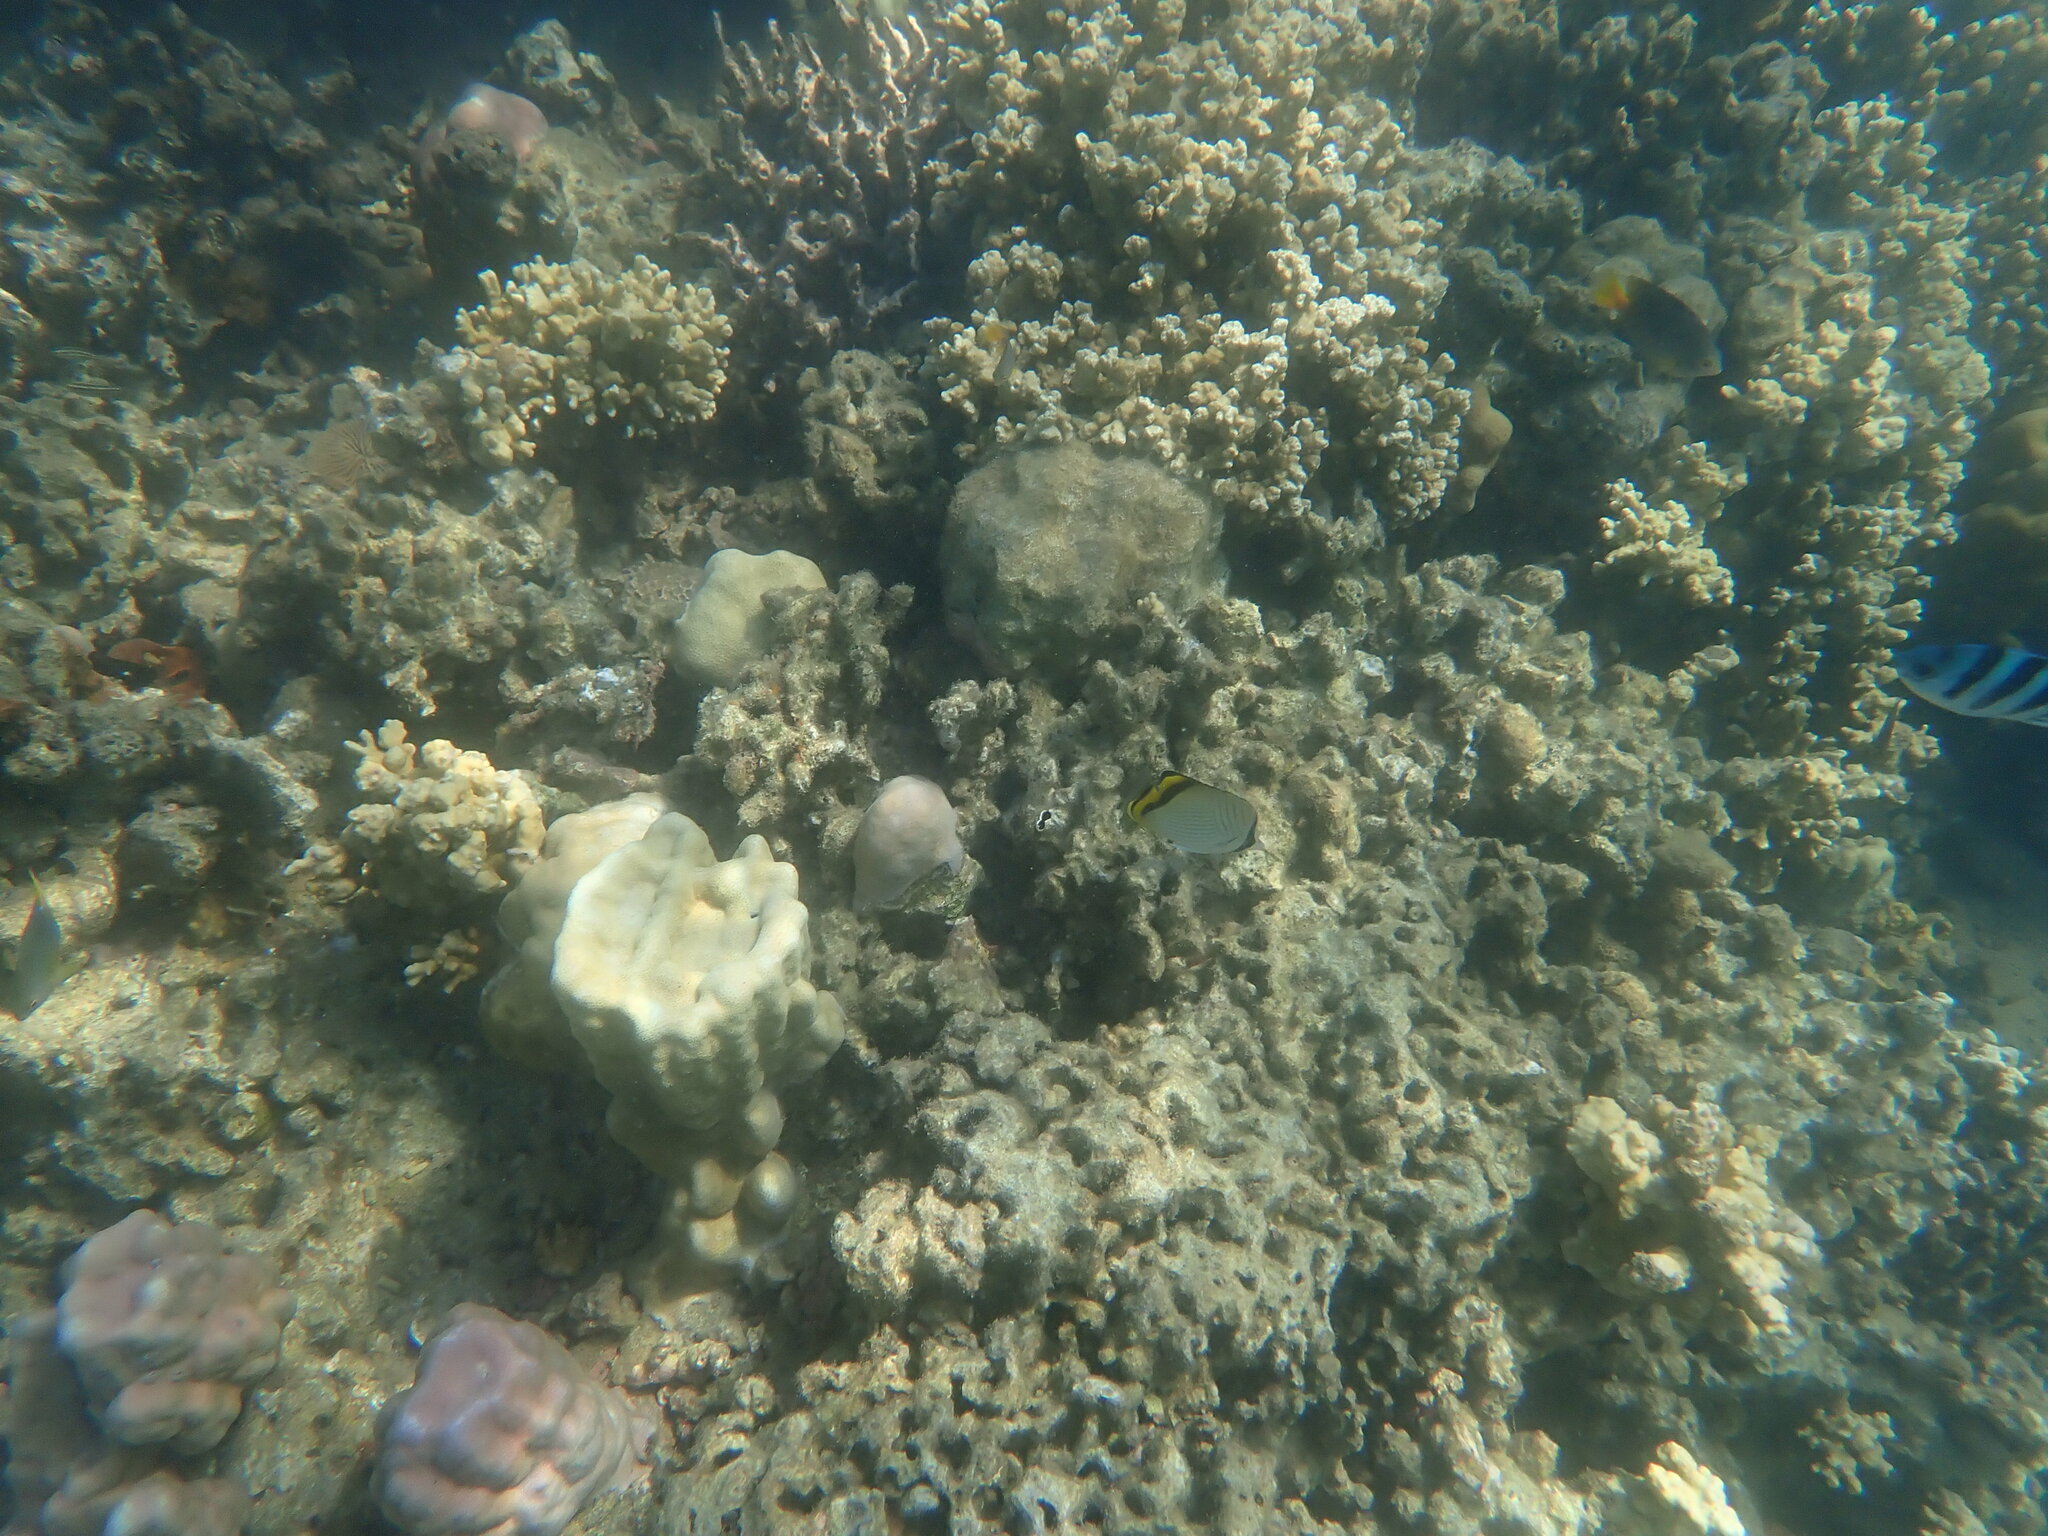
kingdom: Animalia
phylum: Chordata
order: Perciformes
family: Chaetodontidae
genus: Chaetodon
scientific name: Chaetodon vagabundus
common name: Vagabond butterflyfish
